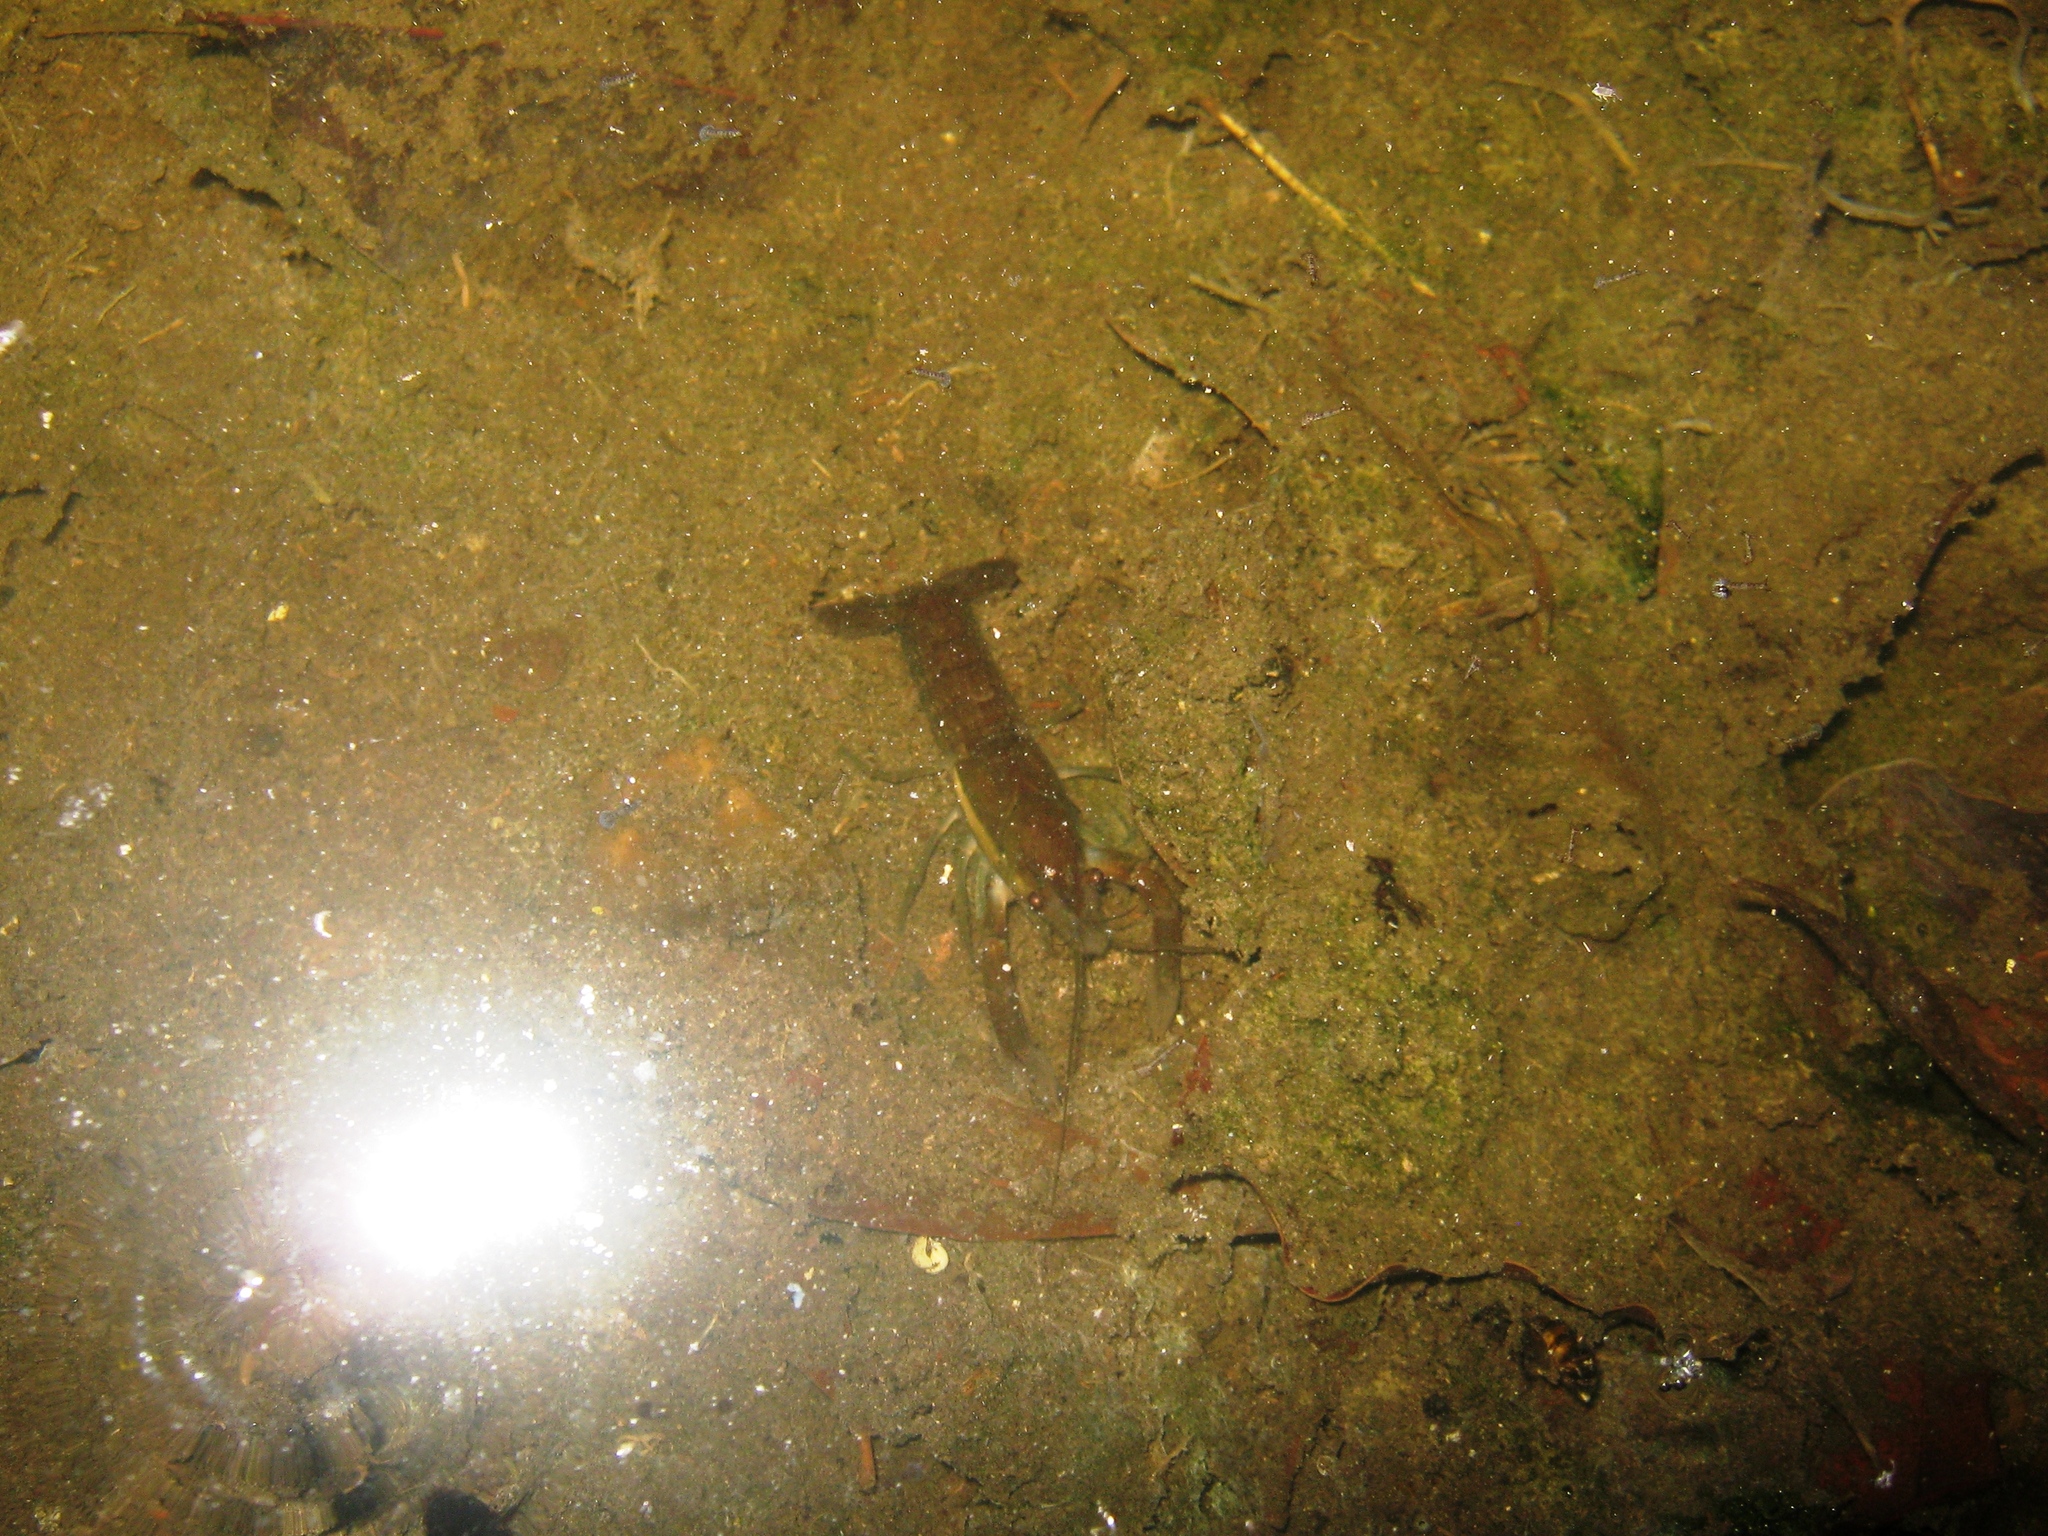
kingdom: Animalia
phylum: Arthropoda
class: Malacostraca
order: Decapoda
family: Cambaridae
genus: Procambarus
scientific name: Procambarus llamasi
